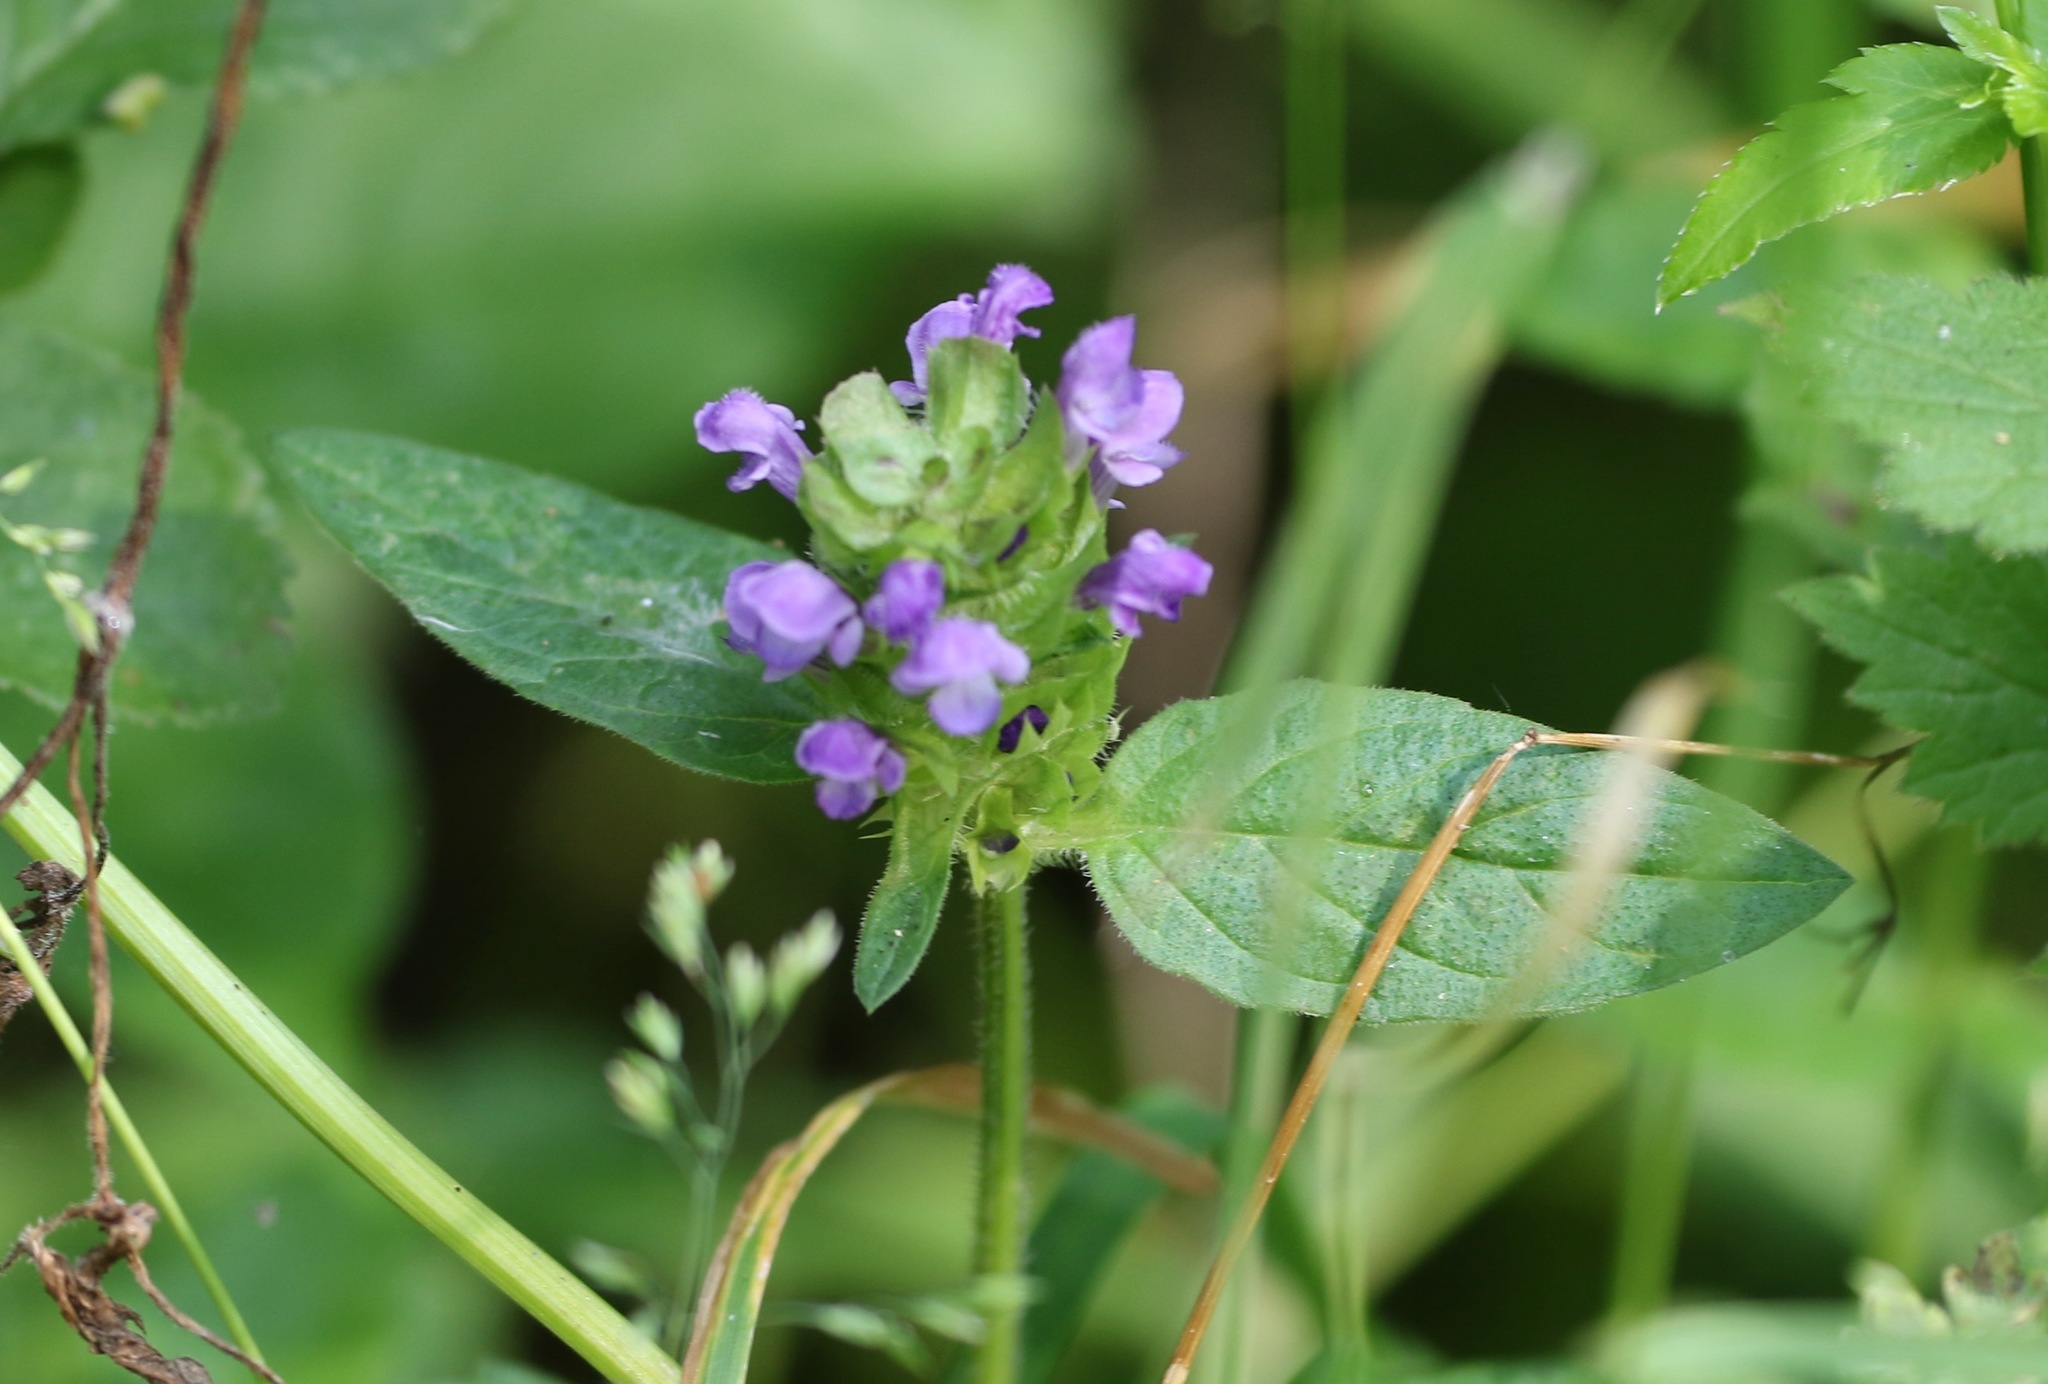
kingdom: Plantae
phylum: Tracheophyta
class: Magnoliopsida
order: Lamiales
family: Lamiaceae
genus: Prunella
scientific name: Prunella vulgaris
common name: Heal-all
